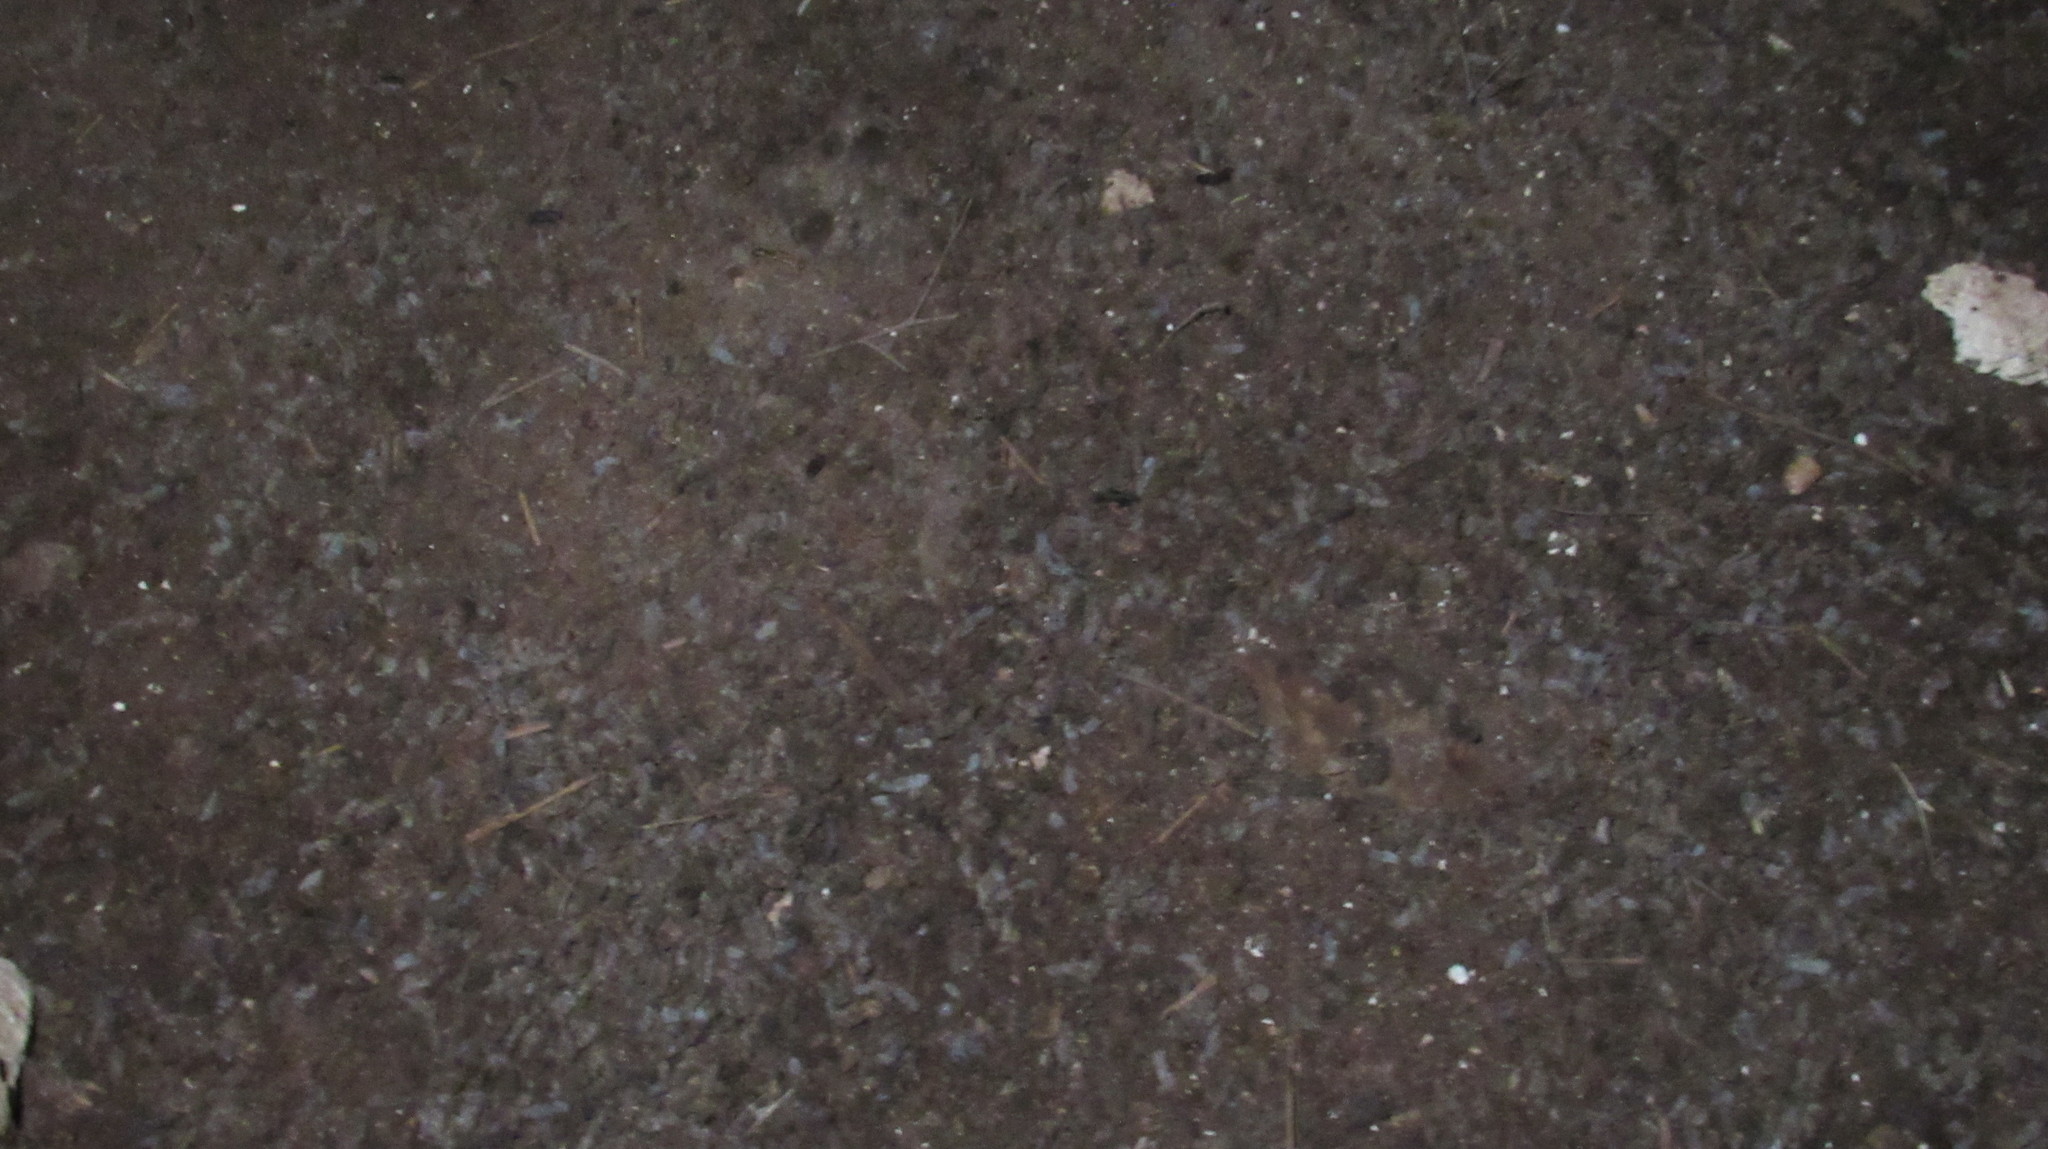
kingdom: Animalia
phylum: Chordata
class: Mammalia
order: Chiroptera
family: Vespertilionidae
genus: Myotis
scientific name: Myotis blythii
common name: Lesser mouse-eared myotis
